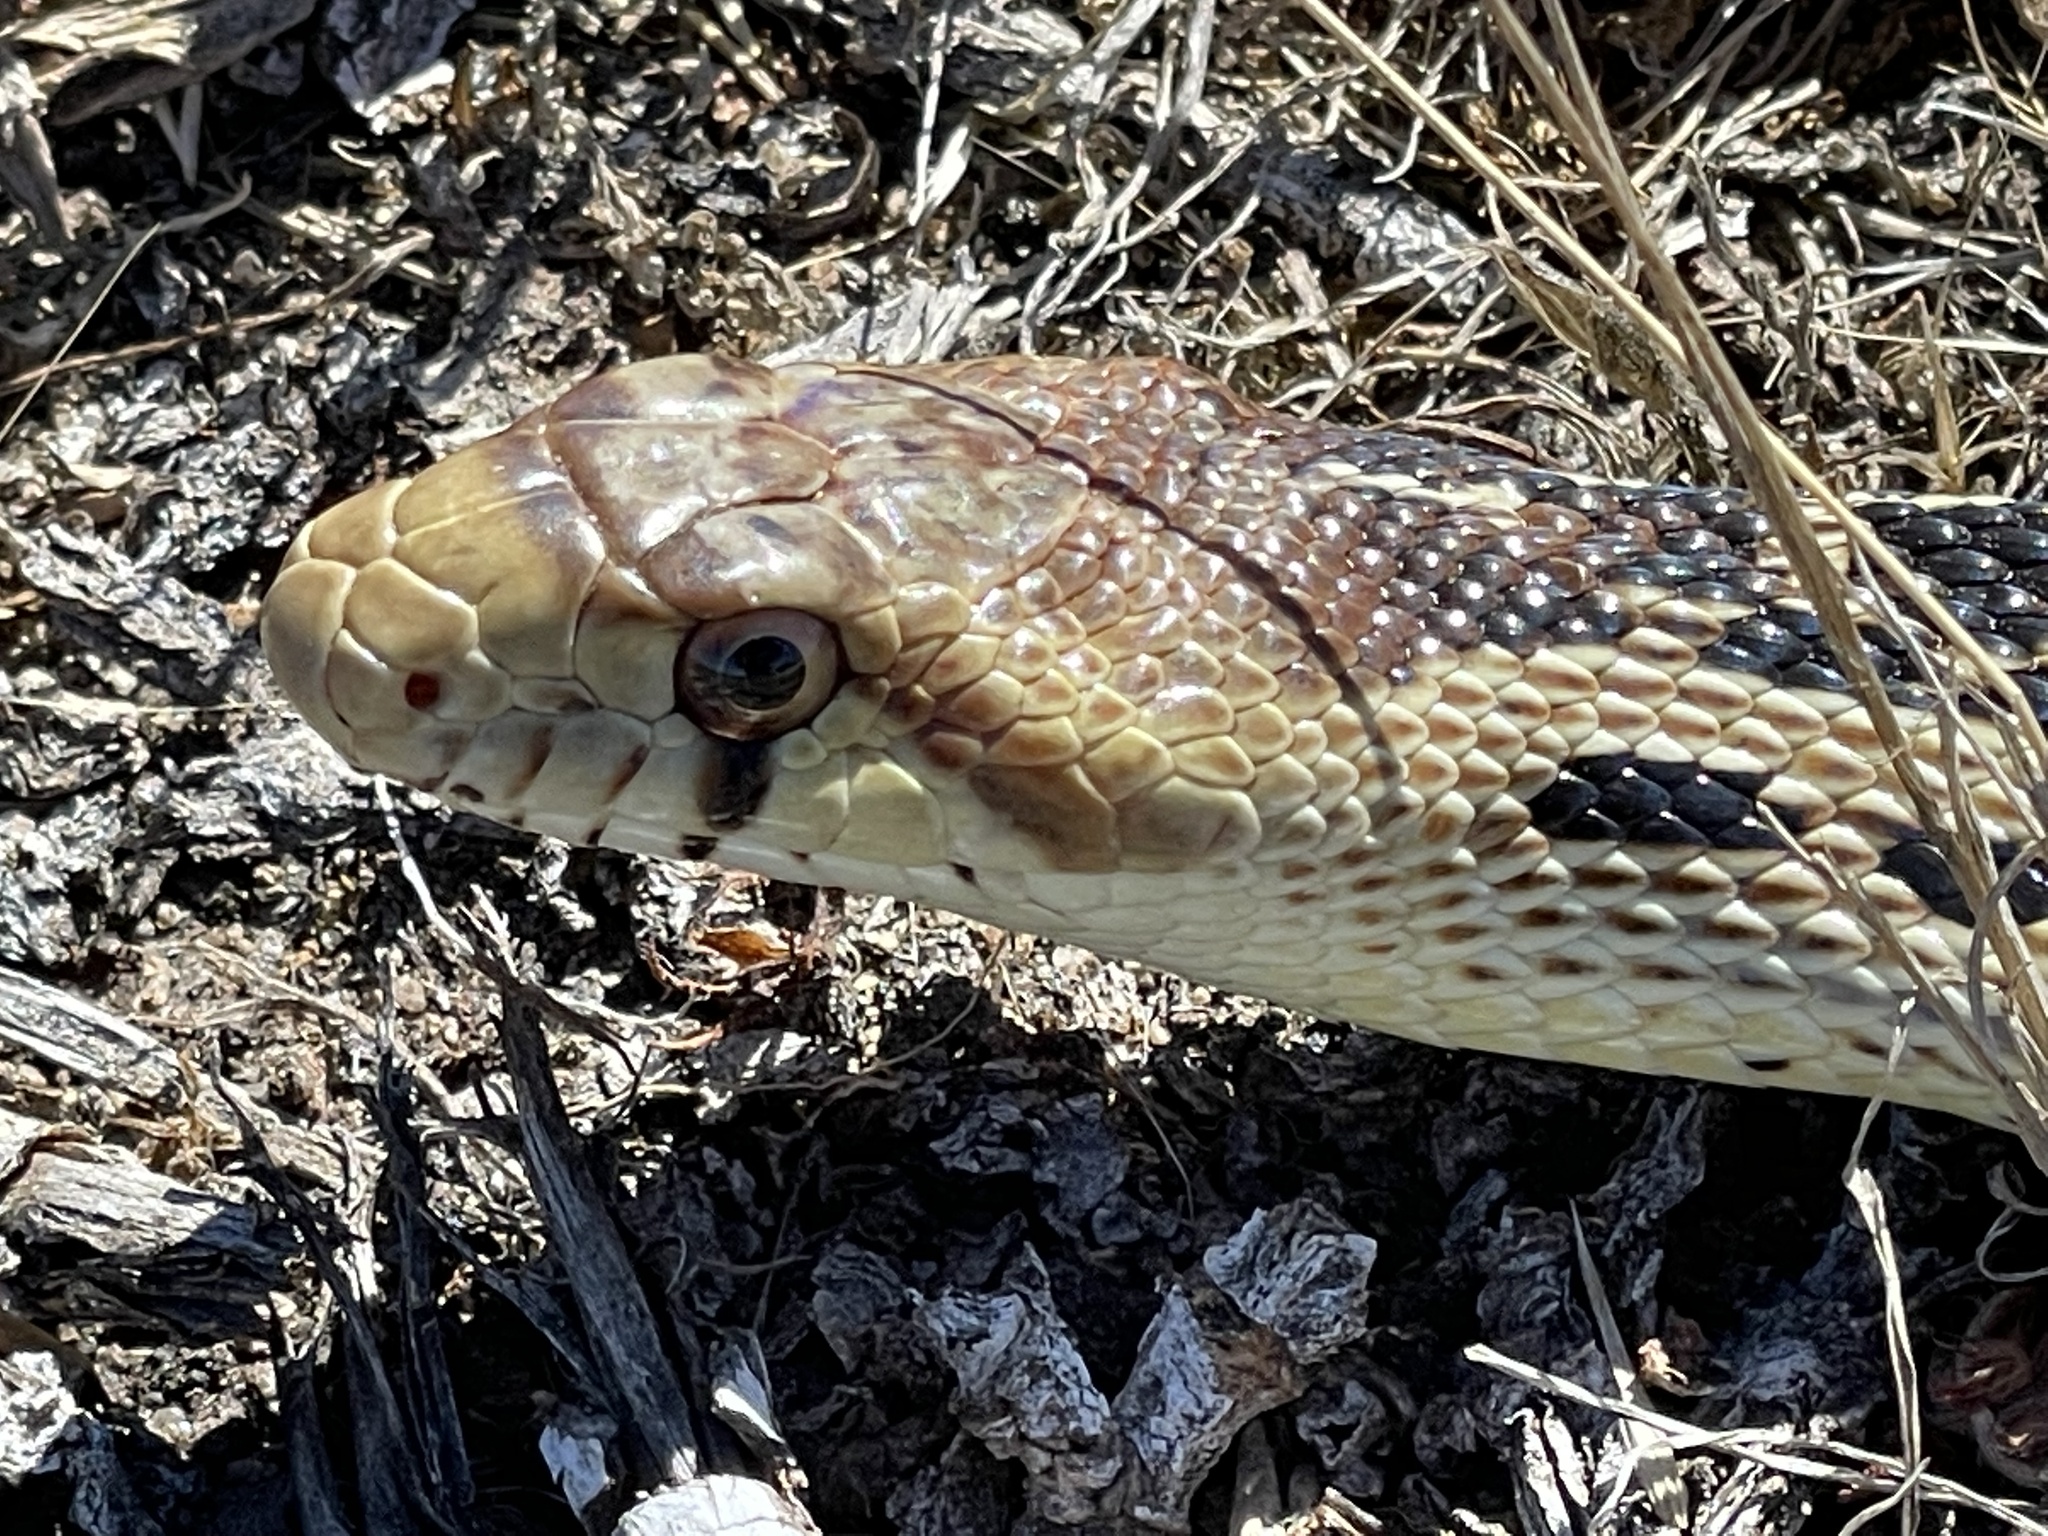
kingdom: Animalia
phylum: Chordata
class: Squamata
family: Colubridae
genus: Pituophis
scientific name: Pituophis catenifer
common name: Gopher snake
